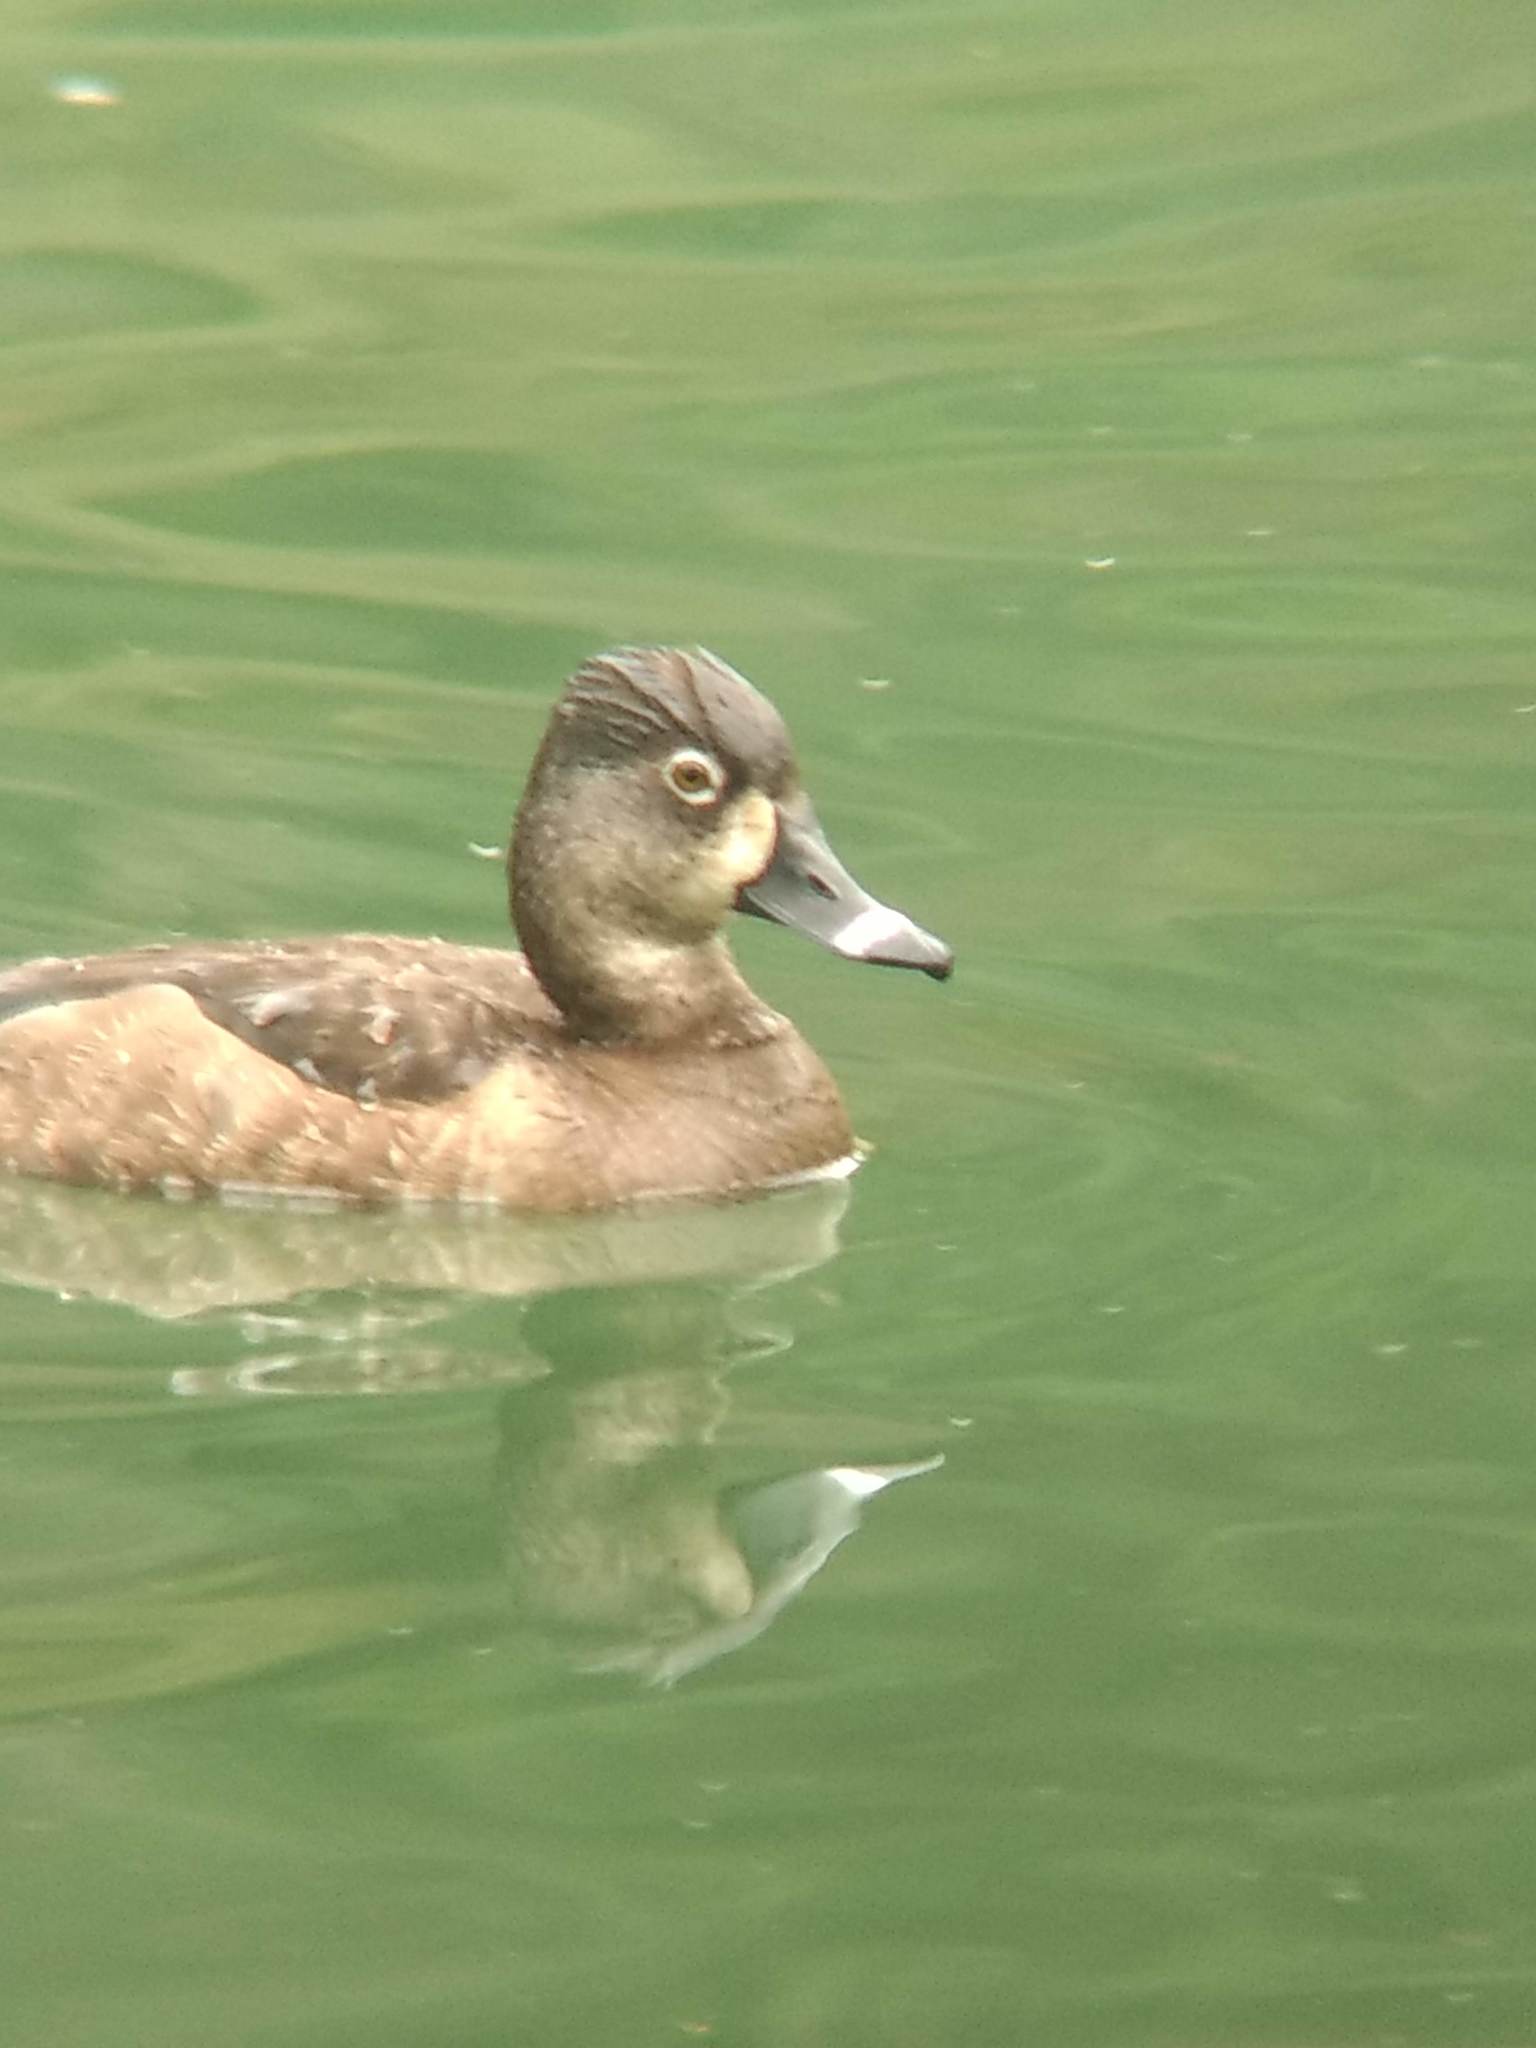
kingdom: Animalia
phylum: Chordata
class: Aves
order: Anseriformes
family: Anatidae
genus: Aythya
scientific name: Aythya collaris
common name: Ring-necked duck
